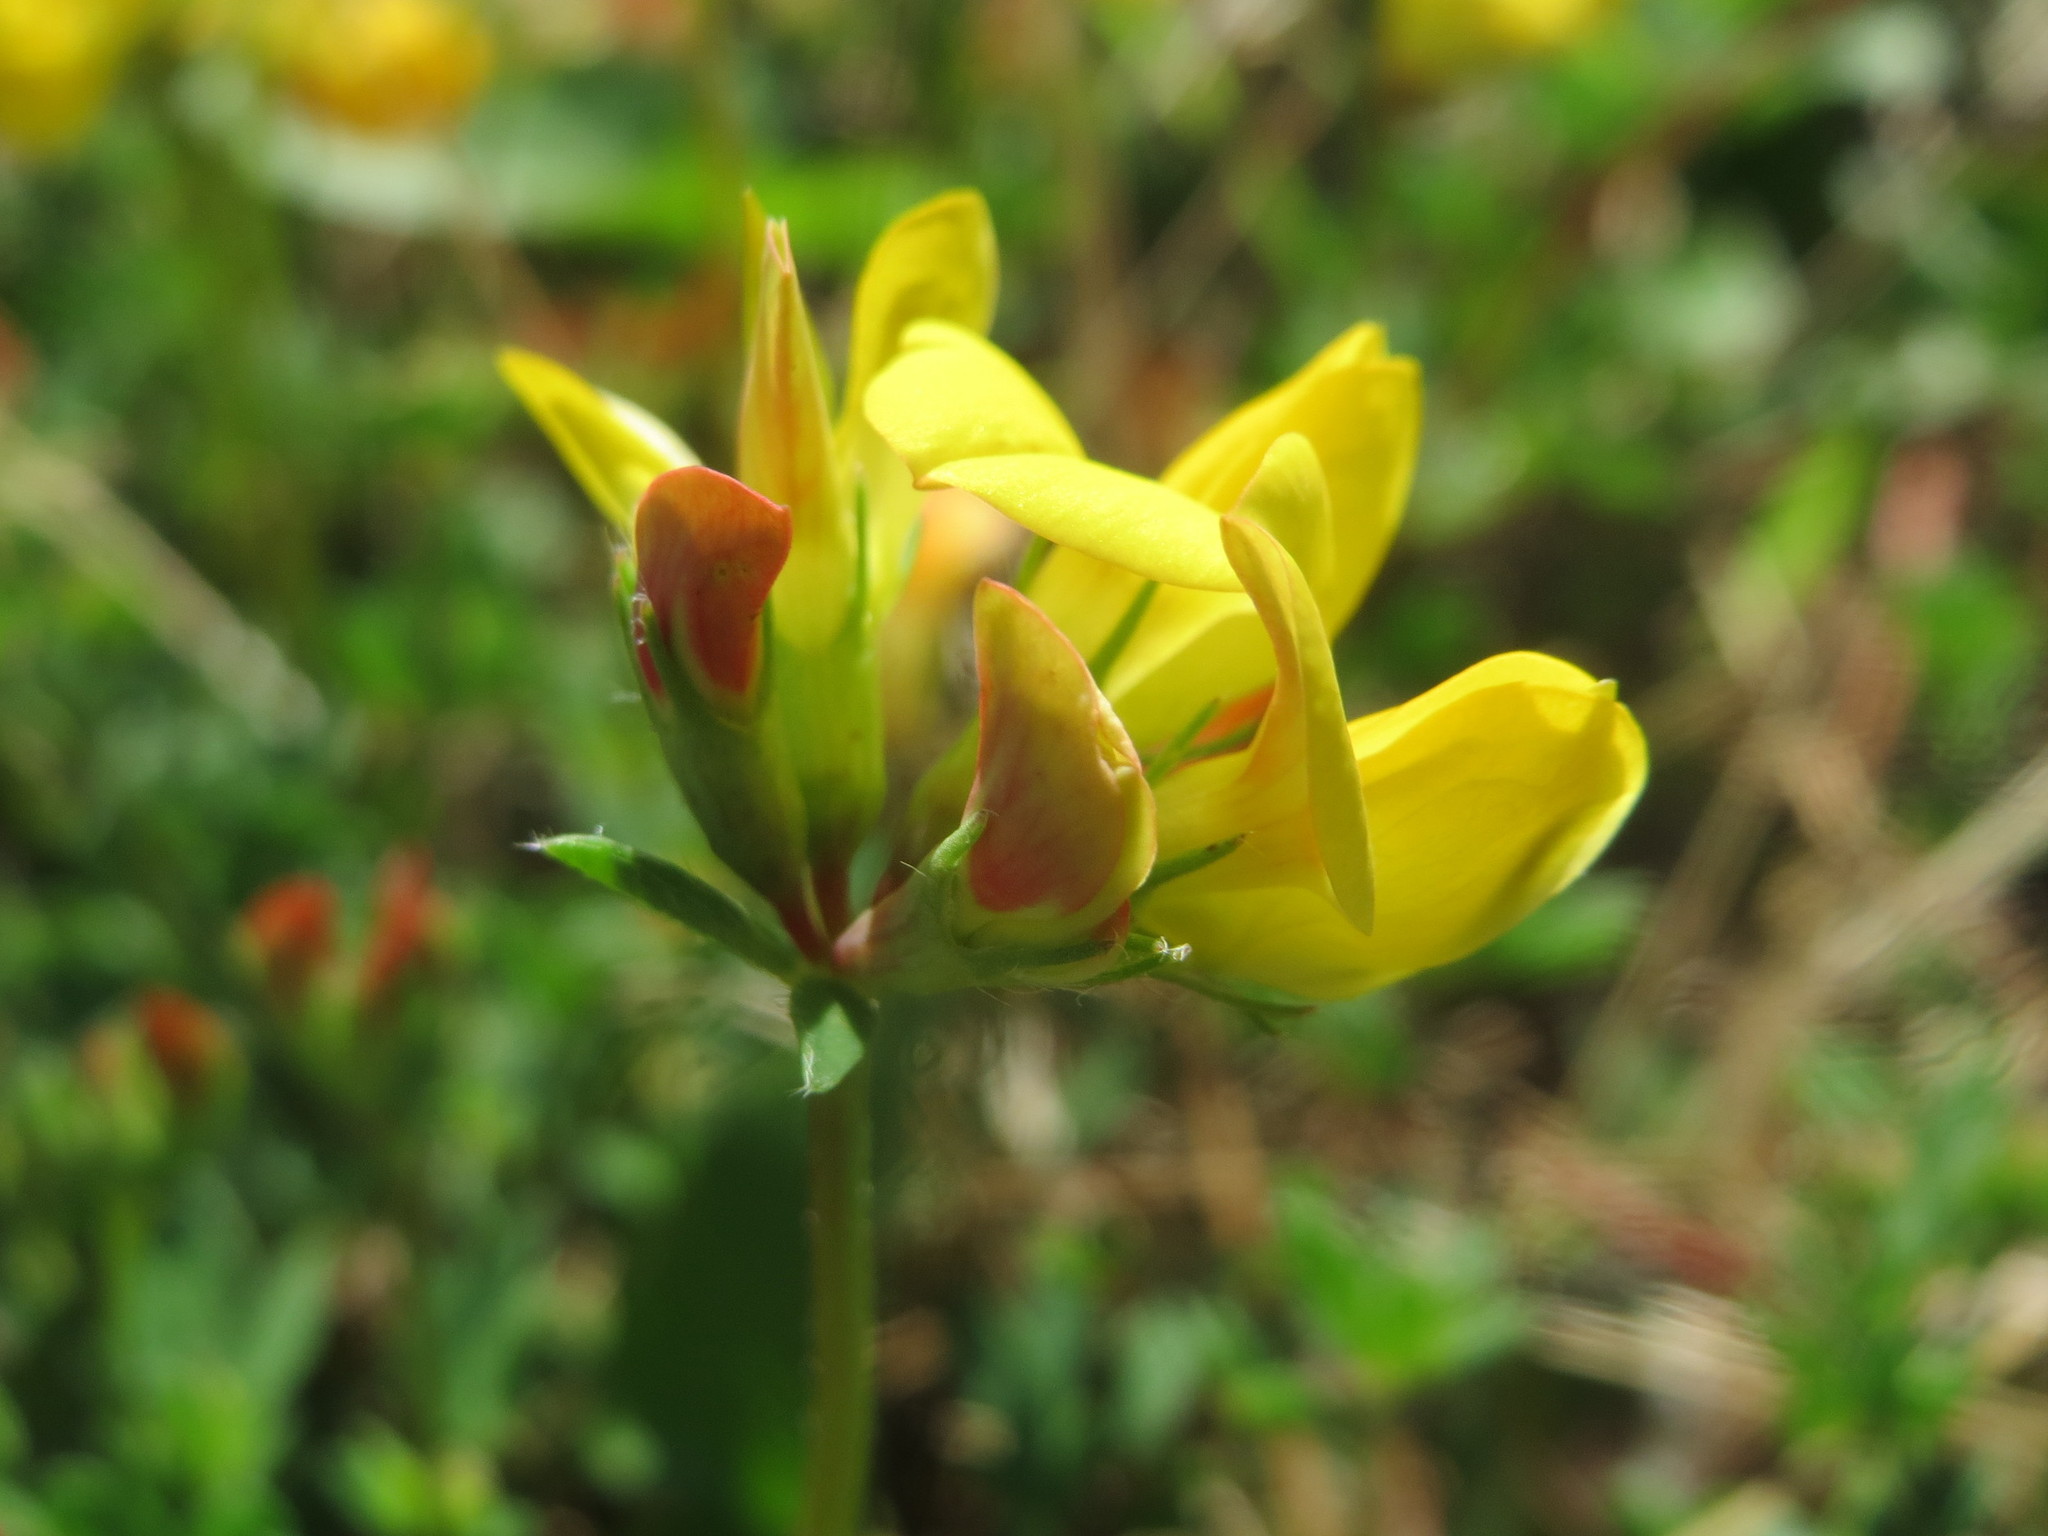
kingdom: Plantae
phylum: Tracheophyta
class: Magnoliopsida
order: Fabales
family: Fabaceae
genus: Lotus
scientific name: Lotus corniculatus
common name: Common bird's-foot-trefoil
